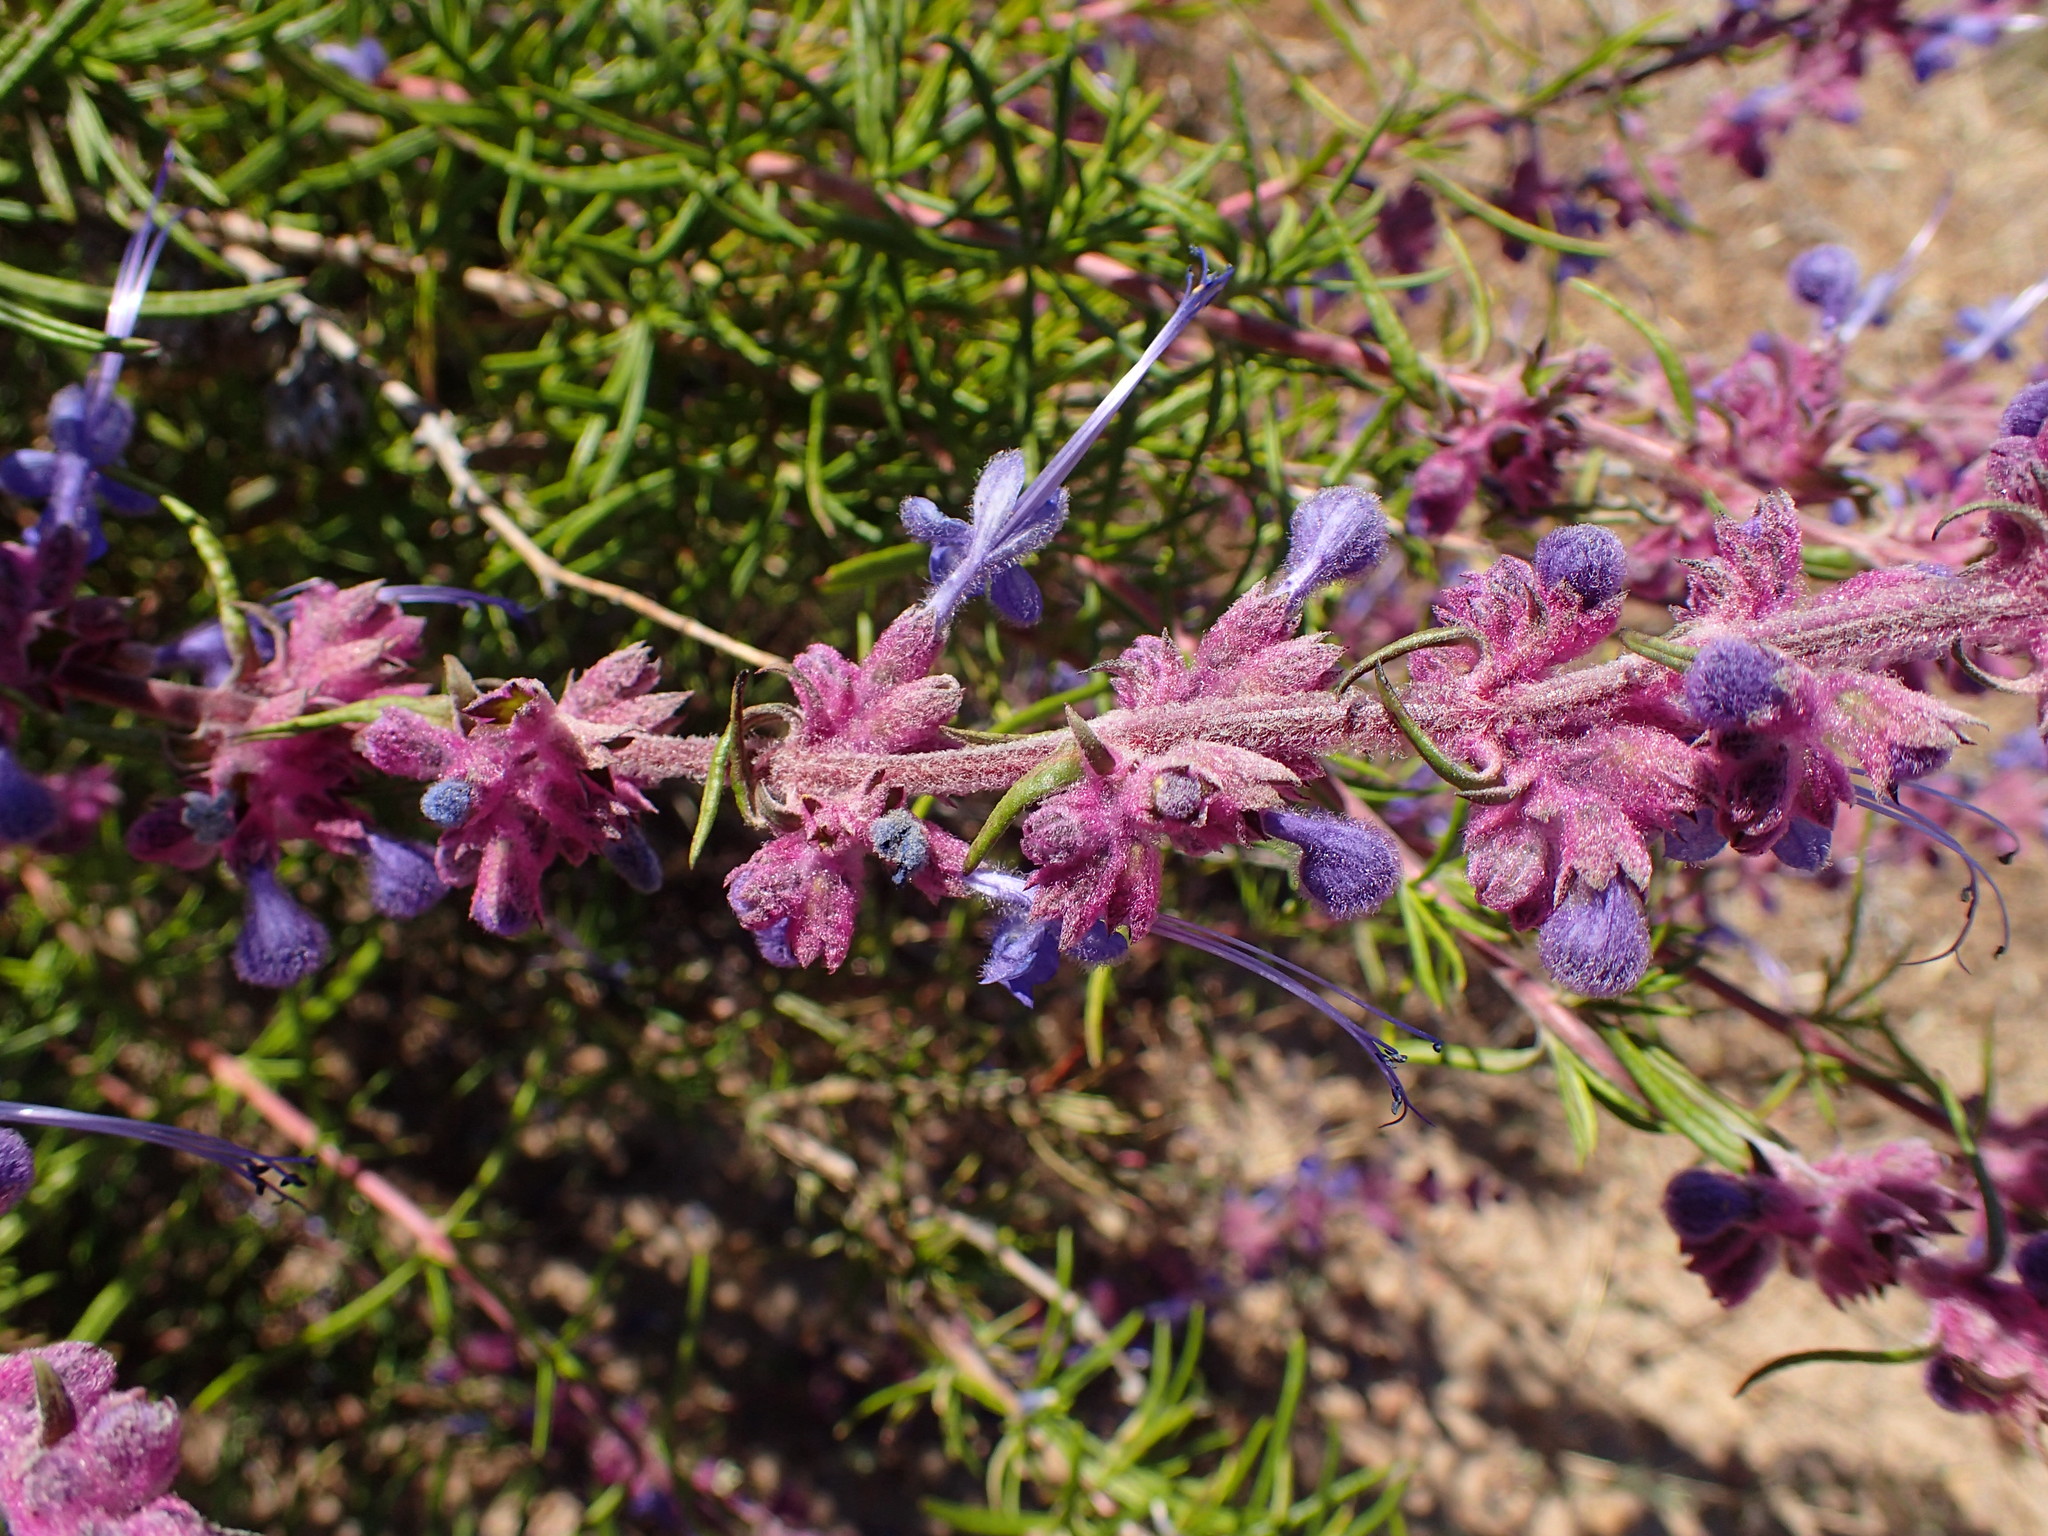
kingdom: Plantae
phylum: Tracheophyta
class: Magnoliopsida
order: Lamiales
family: Lamiaceae
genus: Trichostema
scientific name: Trichostema lanatum
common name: Woolly bluecurls
